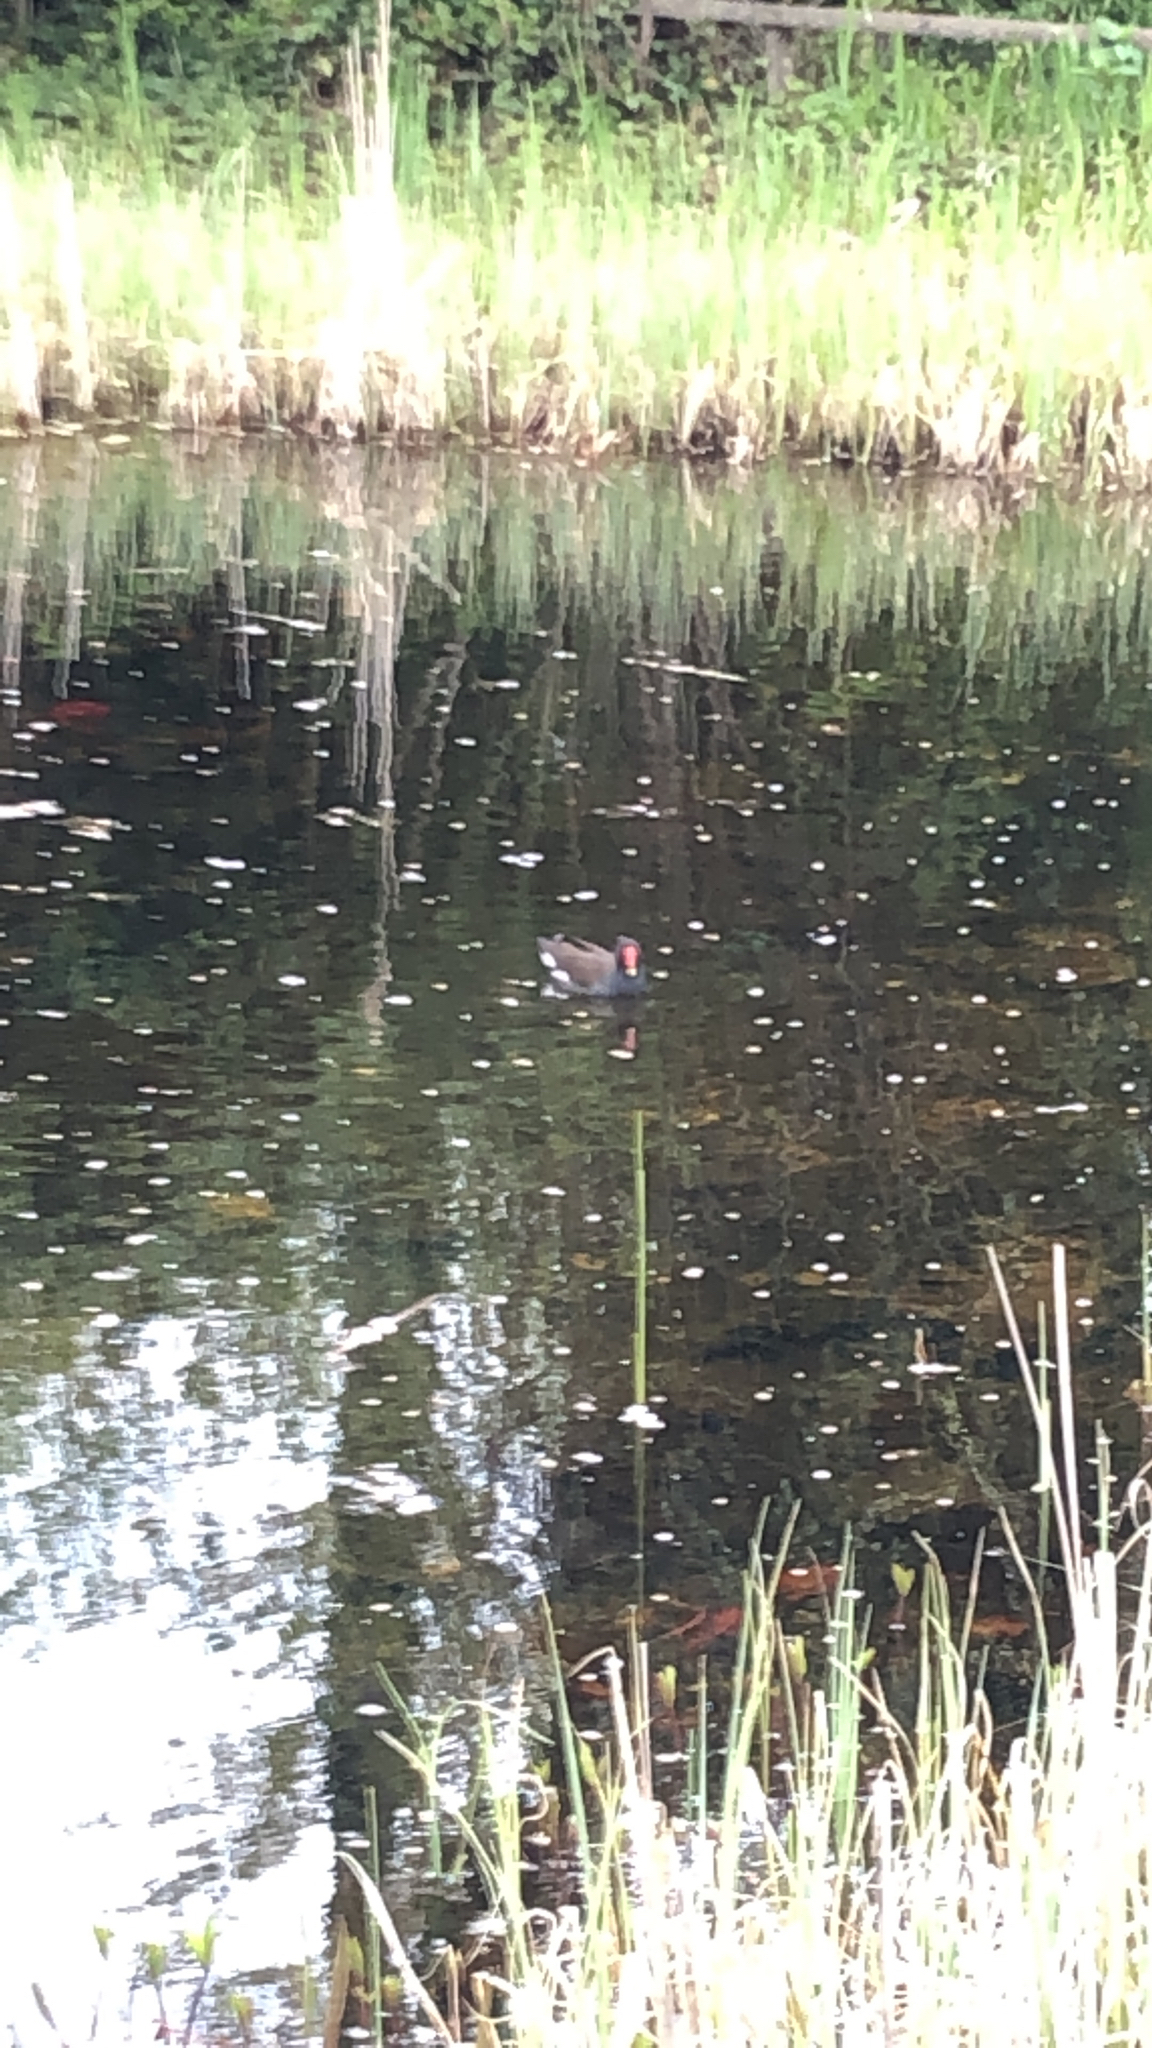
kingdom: Animalia
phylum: Chordata
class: Aves
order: Gruiformes
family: Rallidae
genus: Gallinula
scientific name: Gallinula chloropus
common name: Common moorhen
